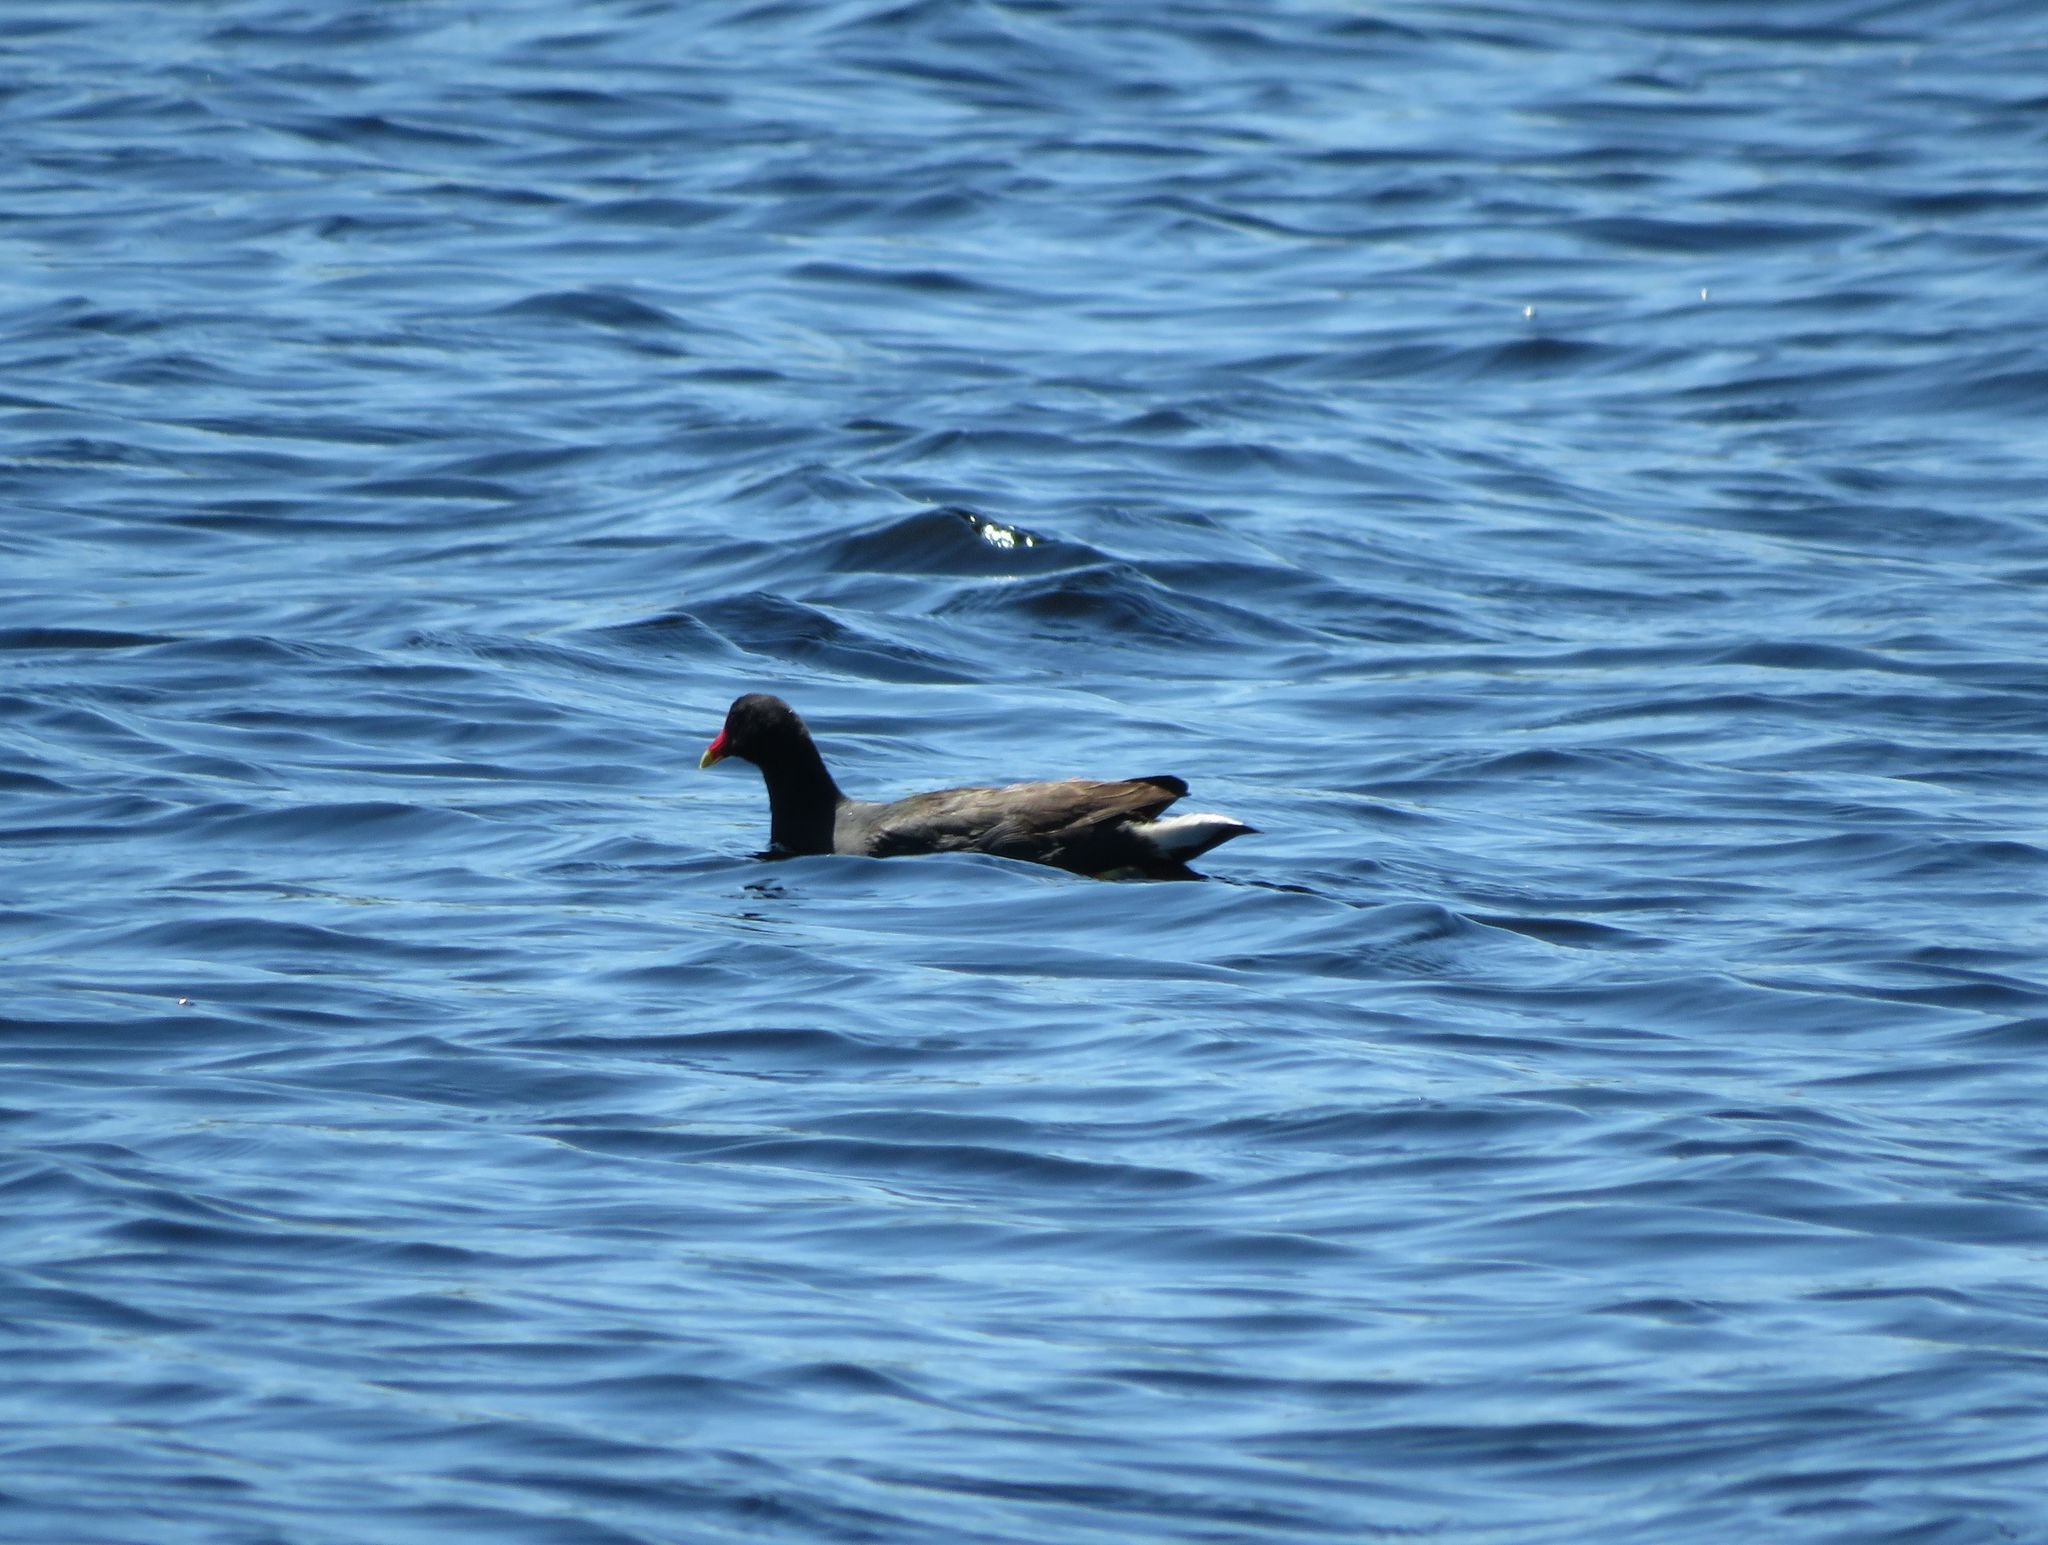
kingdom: Animalia
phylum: Chordata
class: Aves
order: Gruiformes
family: Rallidae
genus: Gallinula
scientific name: Gallinula chloropus
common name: Common moorhen
